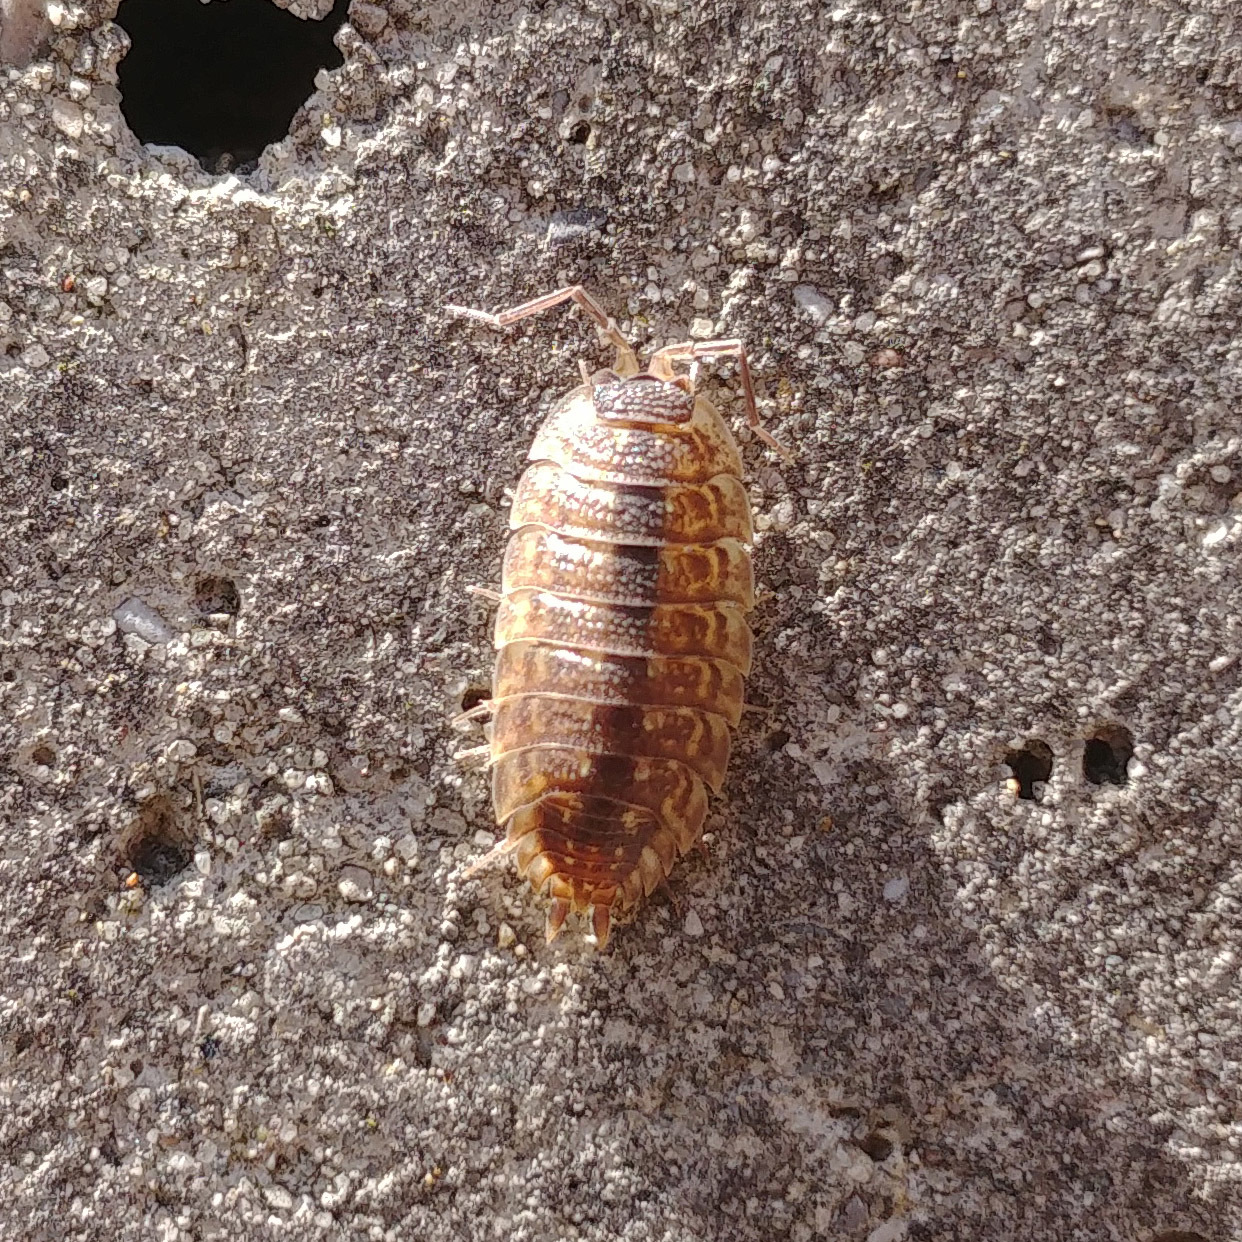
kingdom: Animalia
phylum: Arthropoda
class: Malacostraca
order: Isopoda
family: Porcellionidae
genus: Porcellio
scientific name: Porcellio spinicornis
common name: Painted woodlouse
